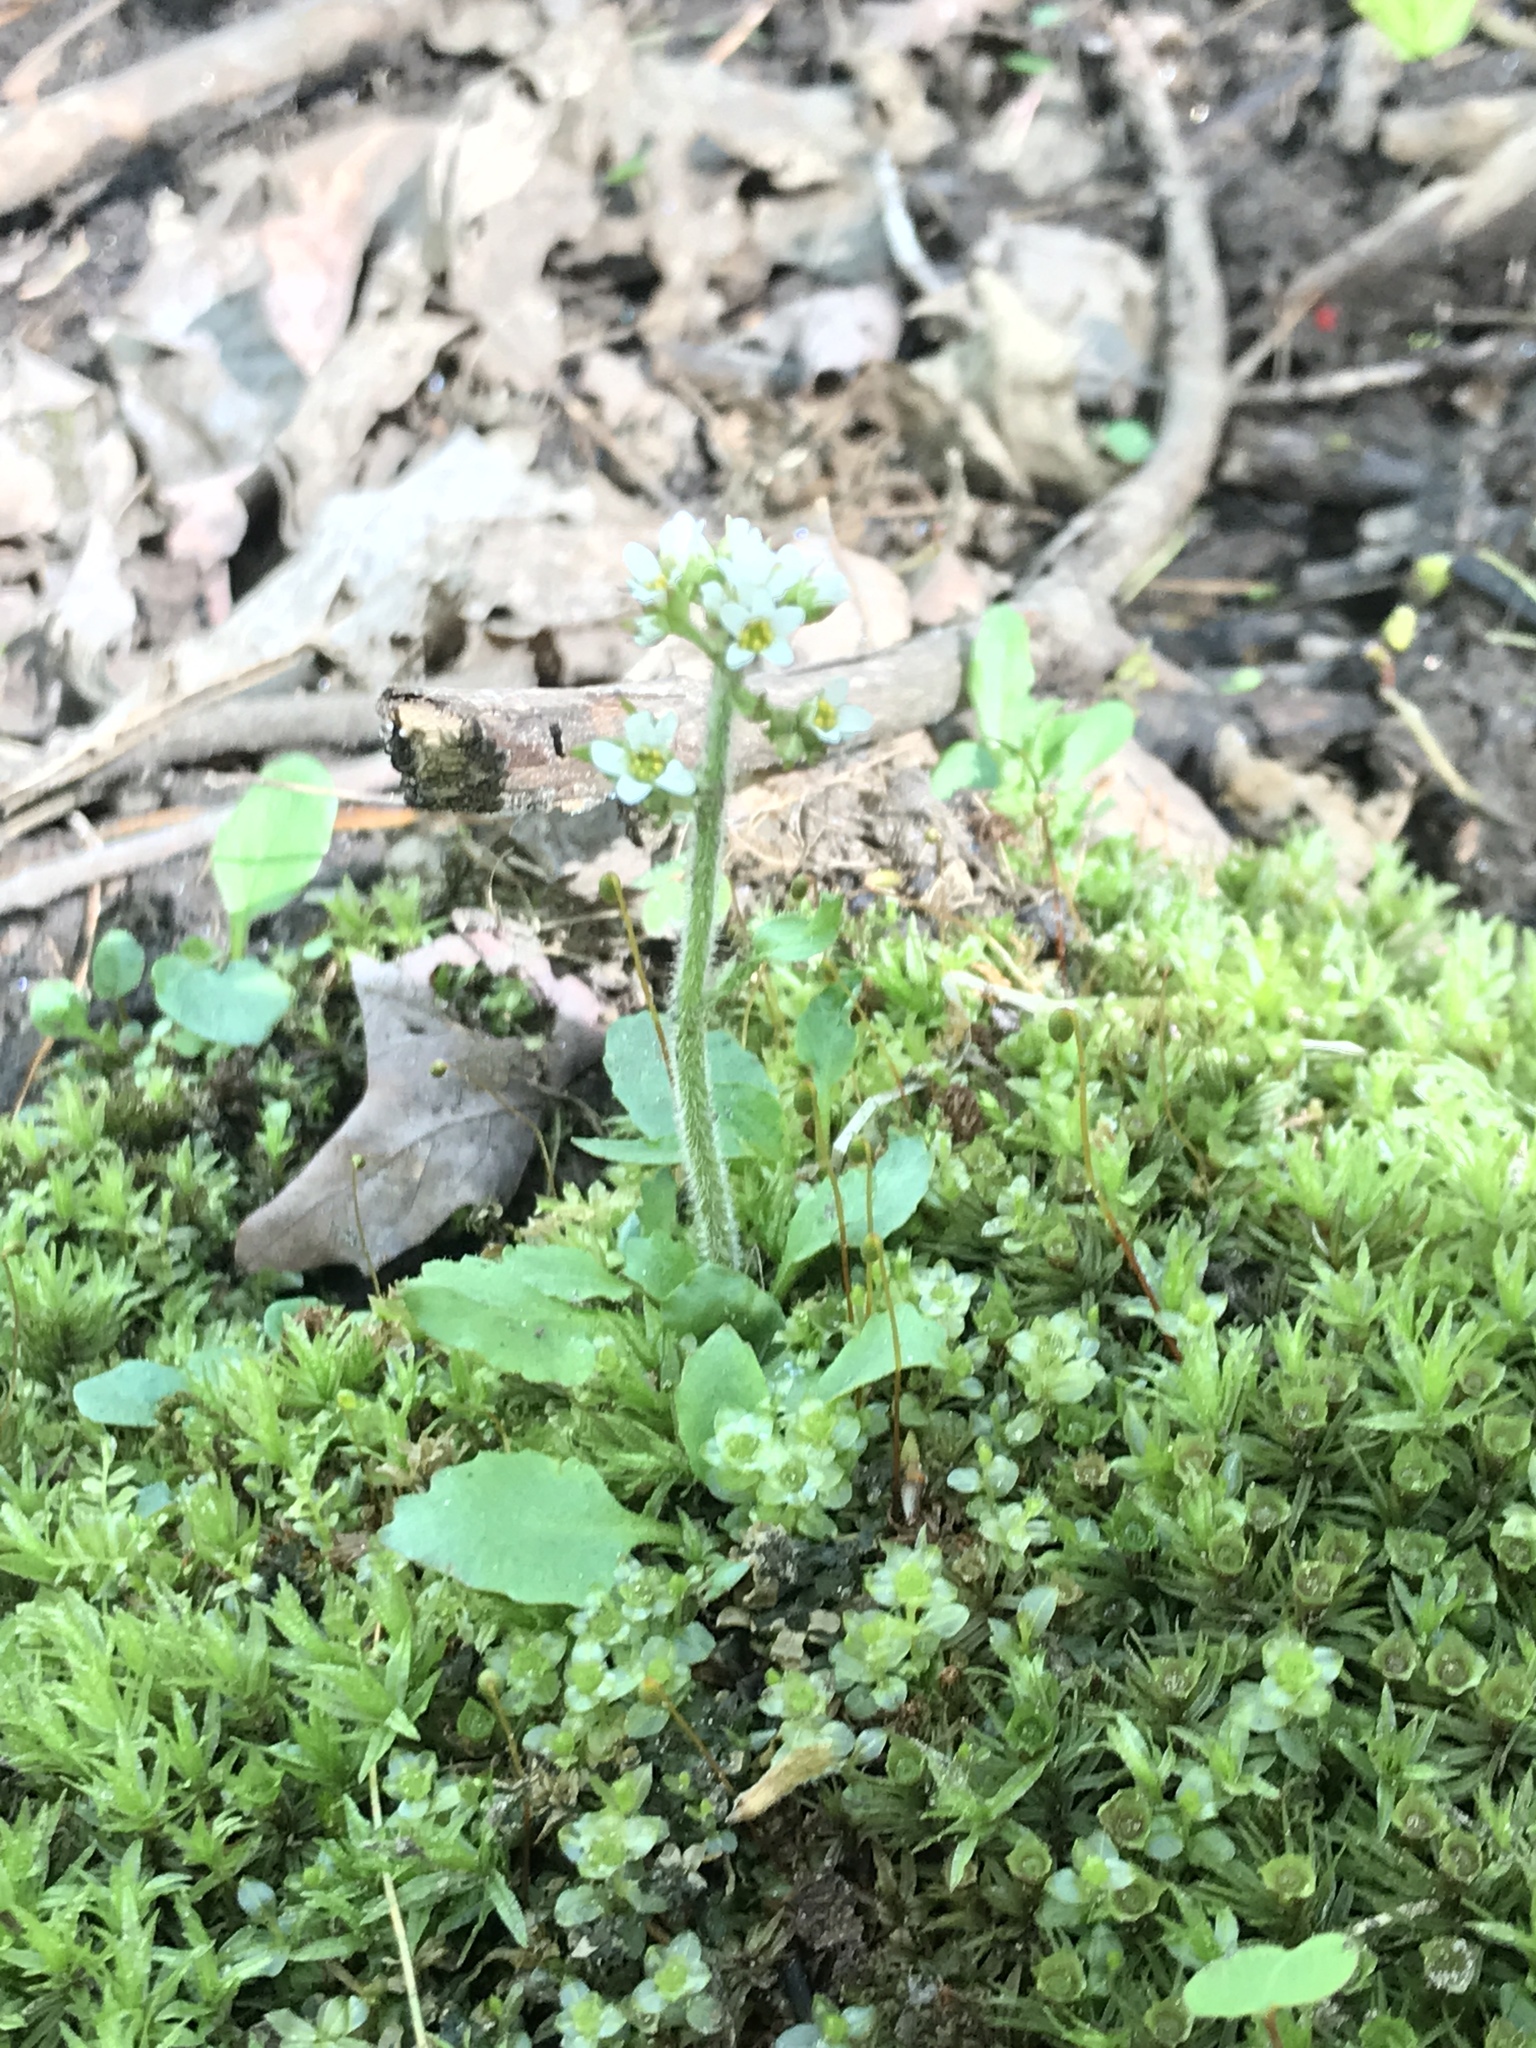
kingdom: Plantae
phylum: Tracheophyta
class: Magnoliopsida
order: Saxifragales
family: Saxifragaceae
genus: Micranthes
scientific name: Micranthes virginiensis
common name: Early saxifrage
